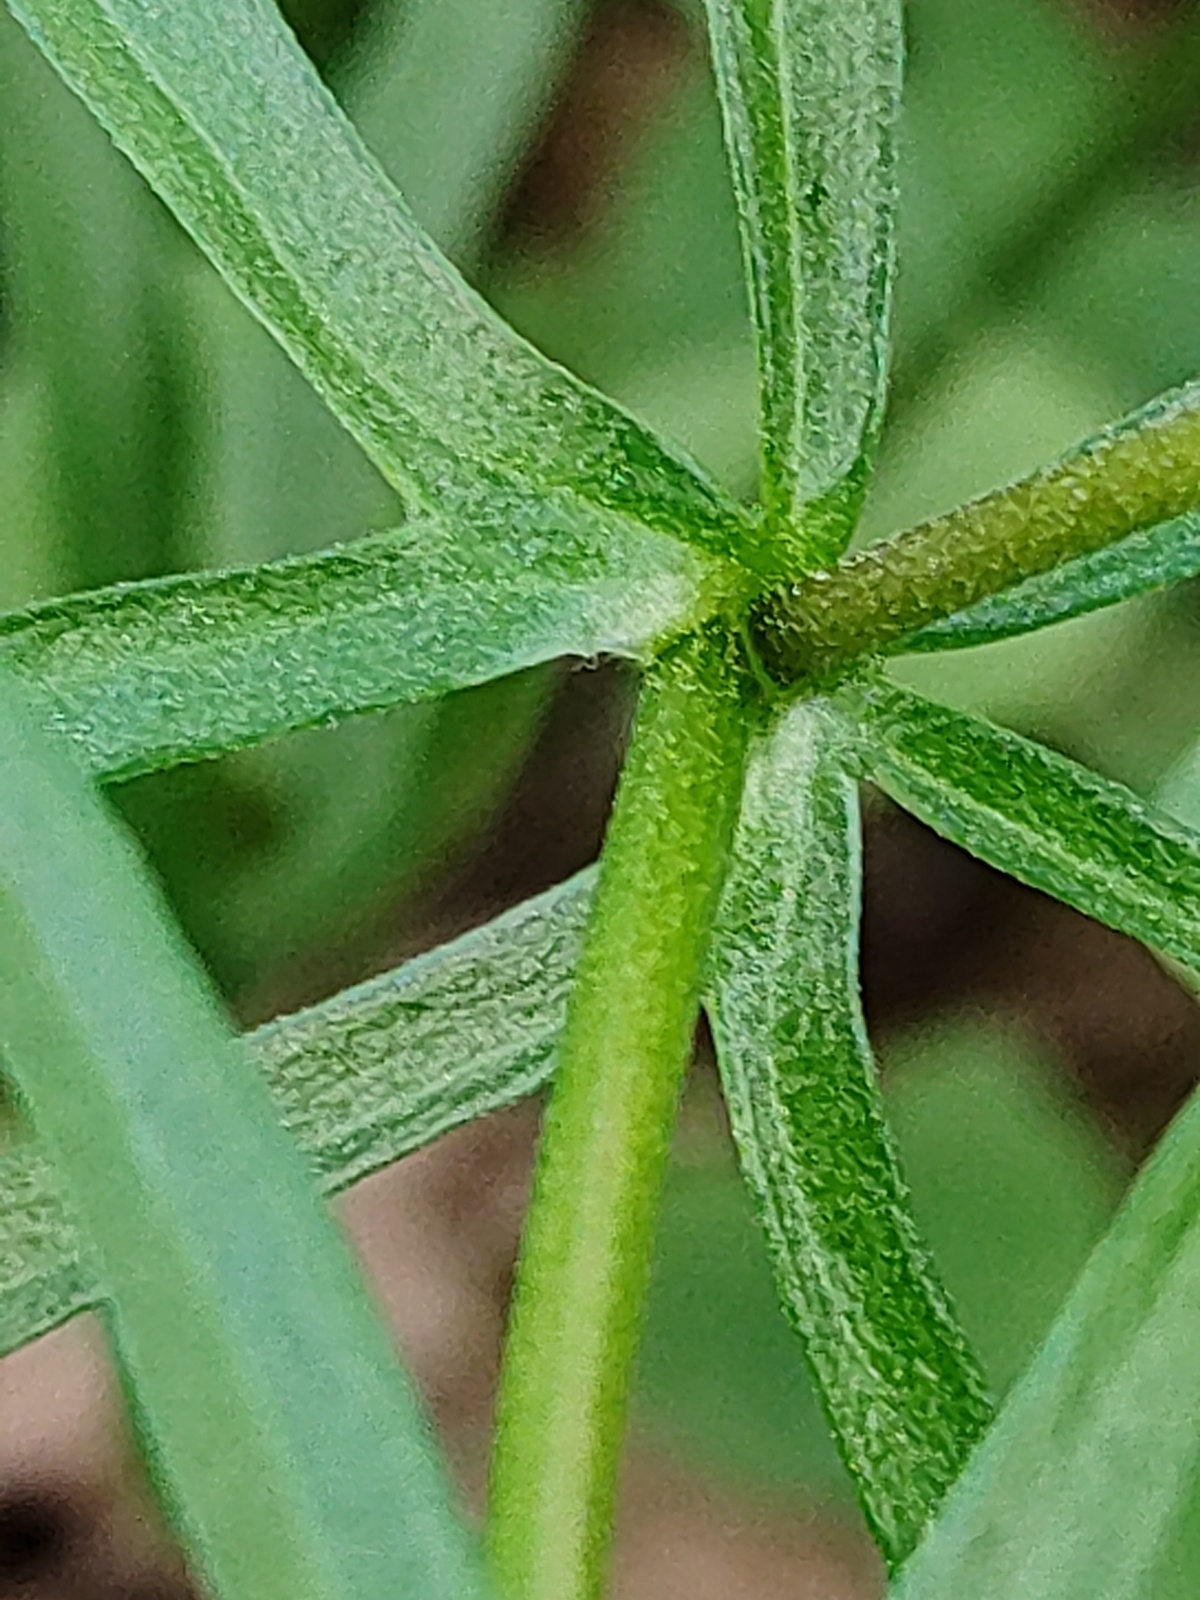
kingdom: Plantae
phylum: Tracheophyta
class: Magnoliopsida
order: Ranunculales
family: Ranunculaceae
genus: Ranunculus
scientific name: Ranunculus auricomus
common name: Goldilocks buttercup
